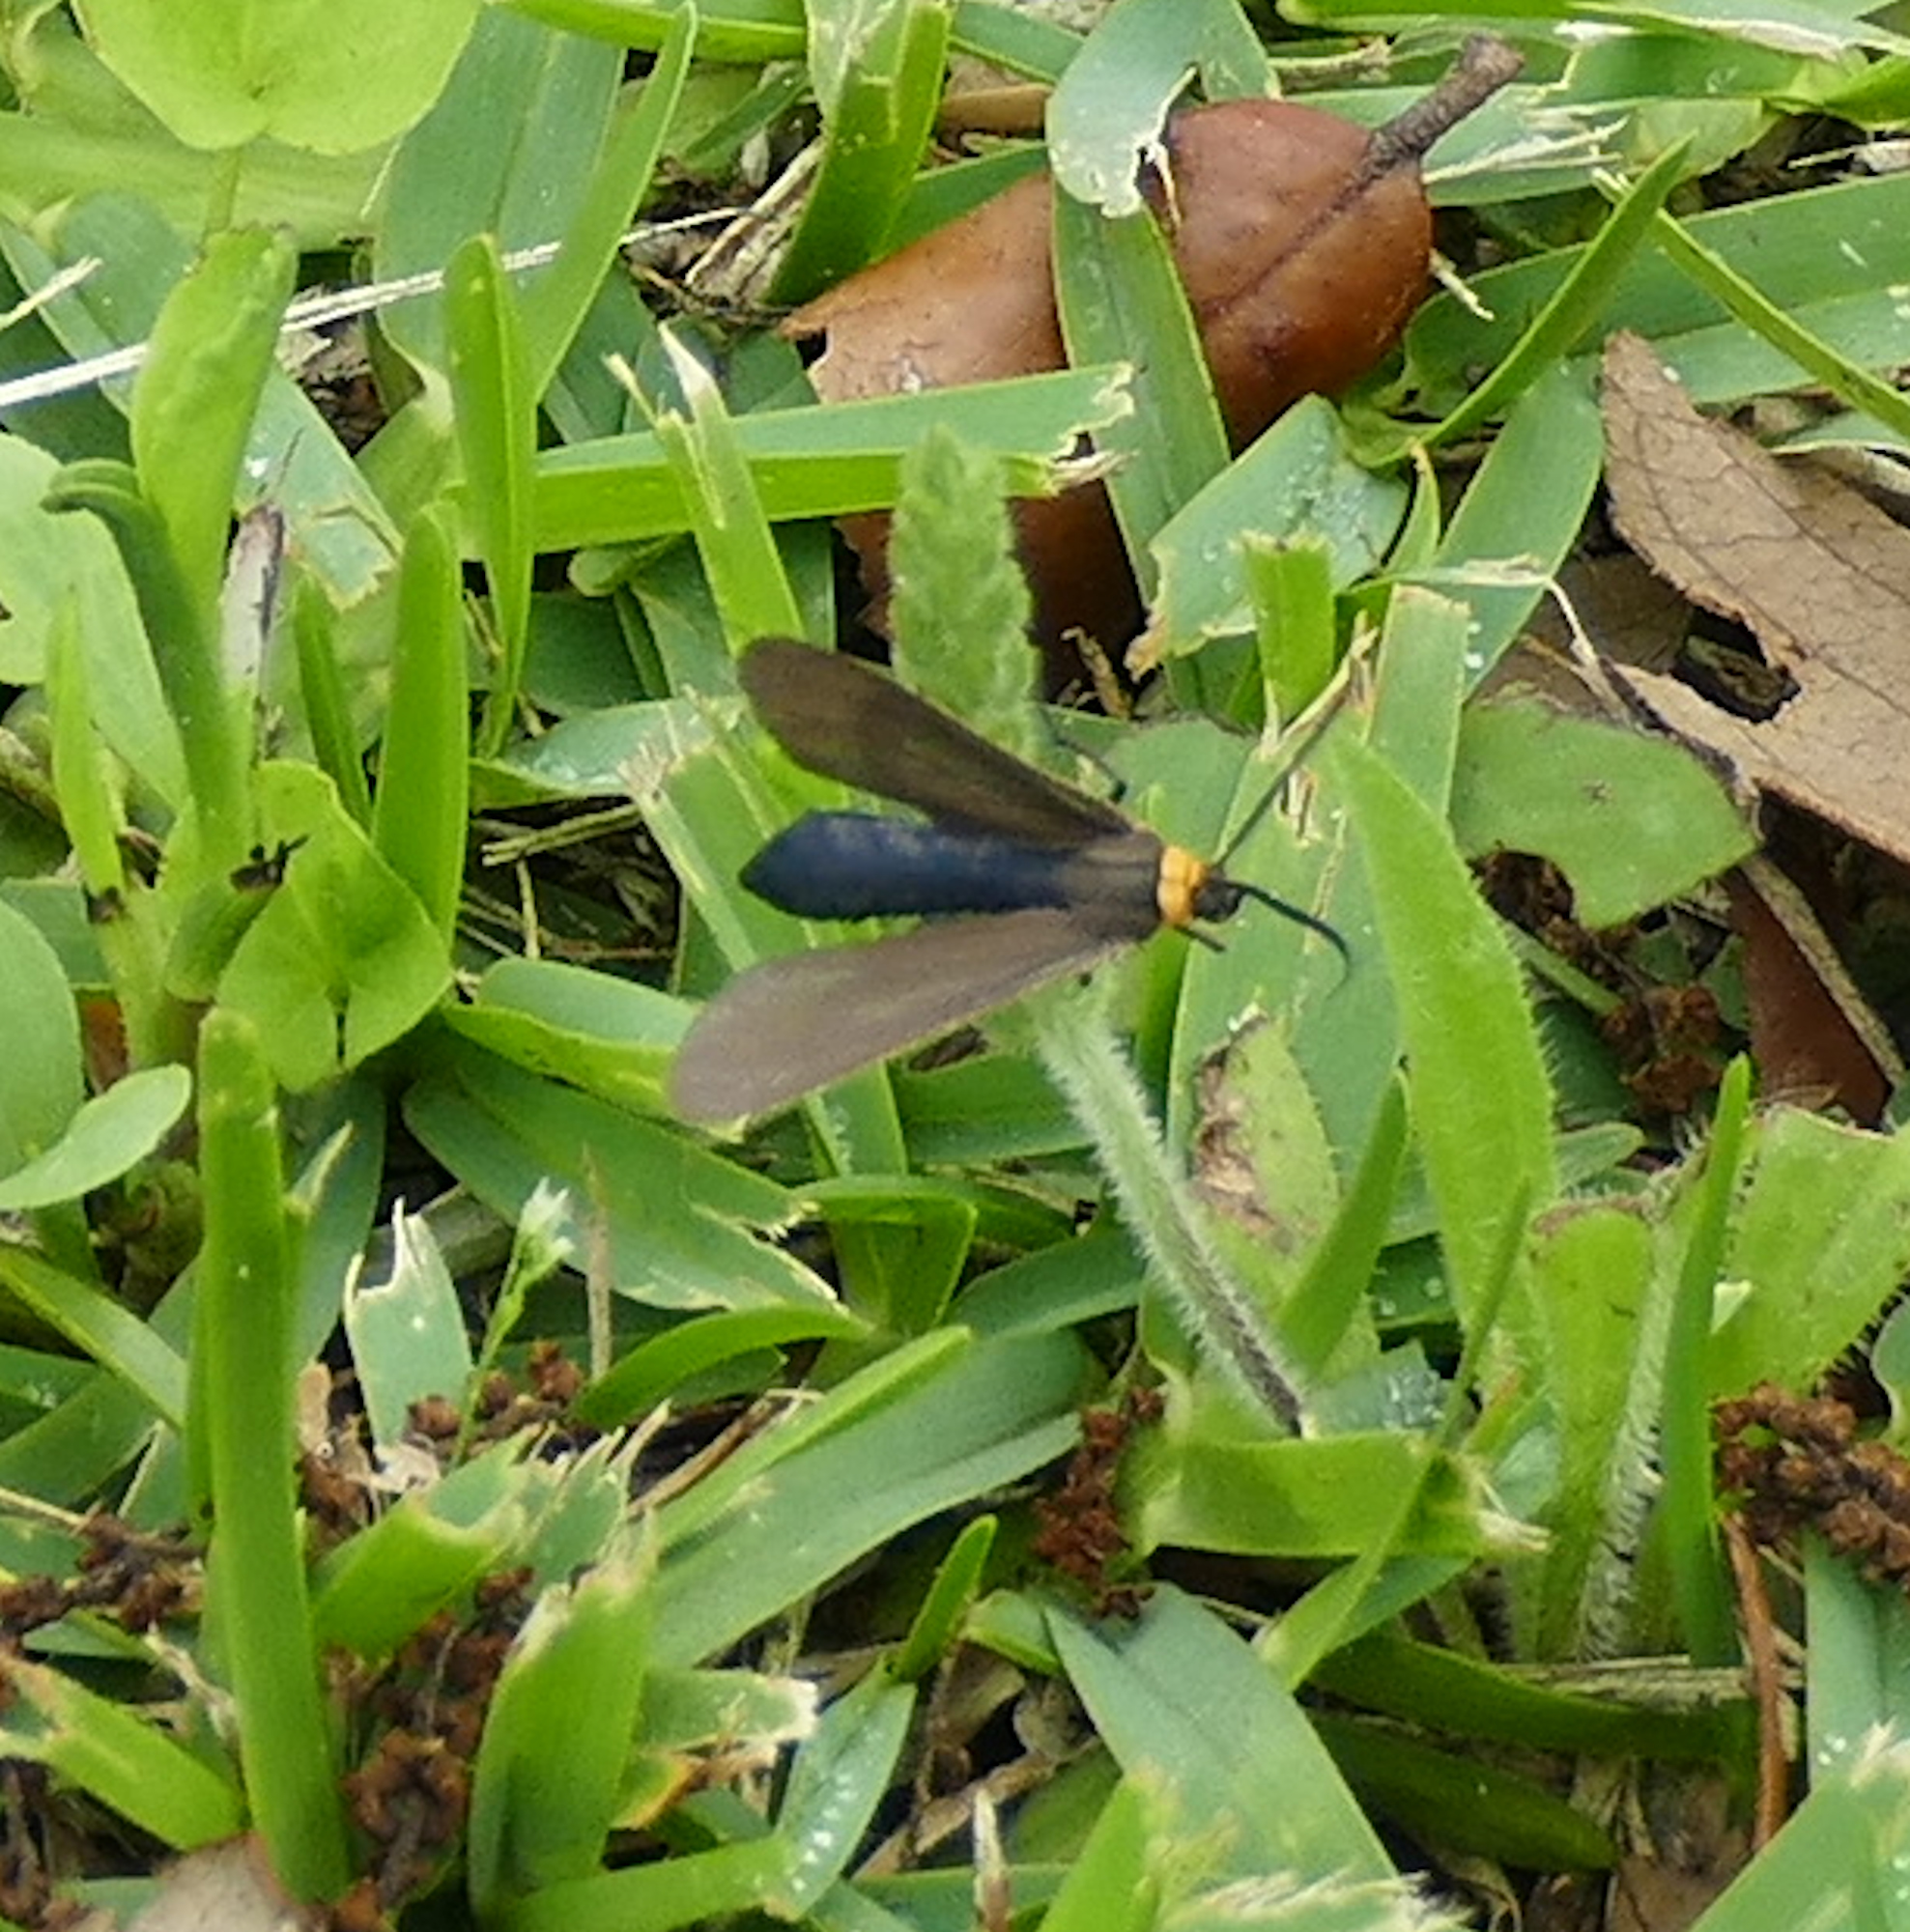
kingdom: Animalia
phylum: Arthropoda
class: Insecta
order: Lepidoptera
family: Erebidae
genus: Cisseps
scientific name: Cisseps fulvicollis
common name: Yellow-collared scape moth
